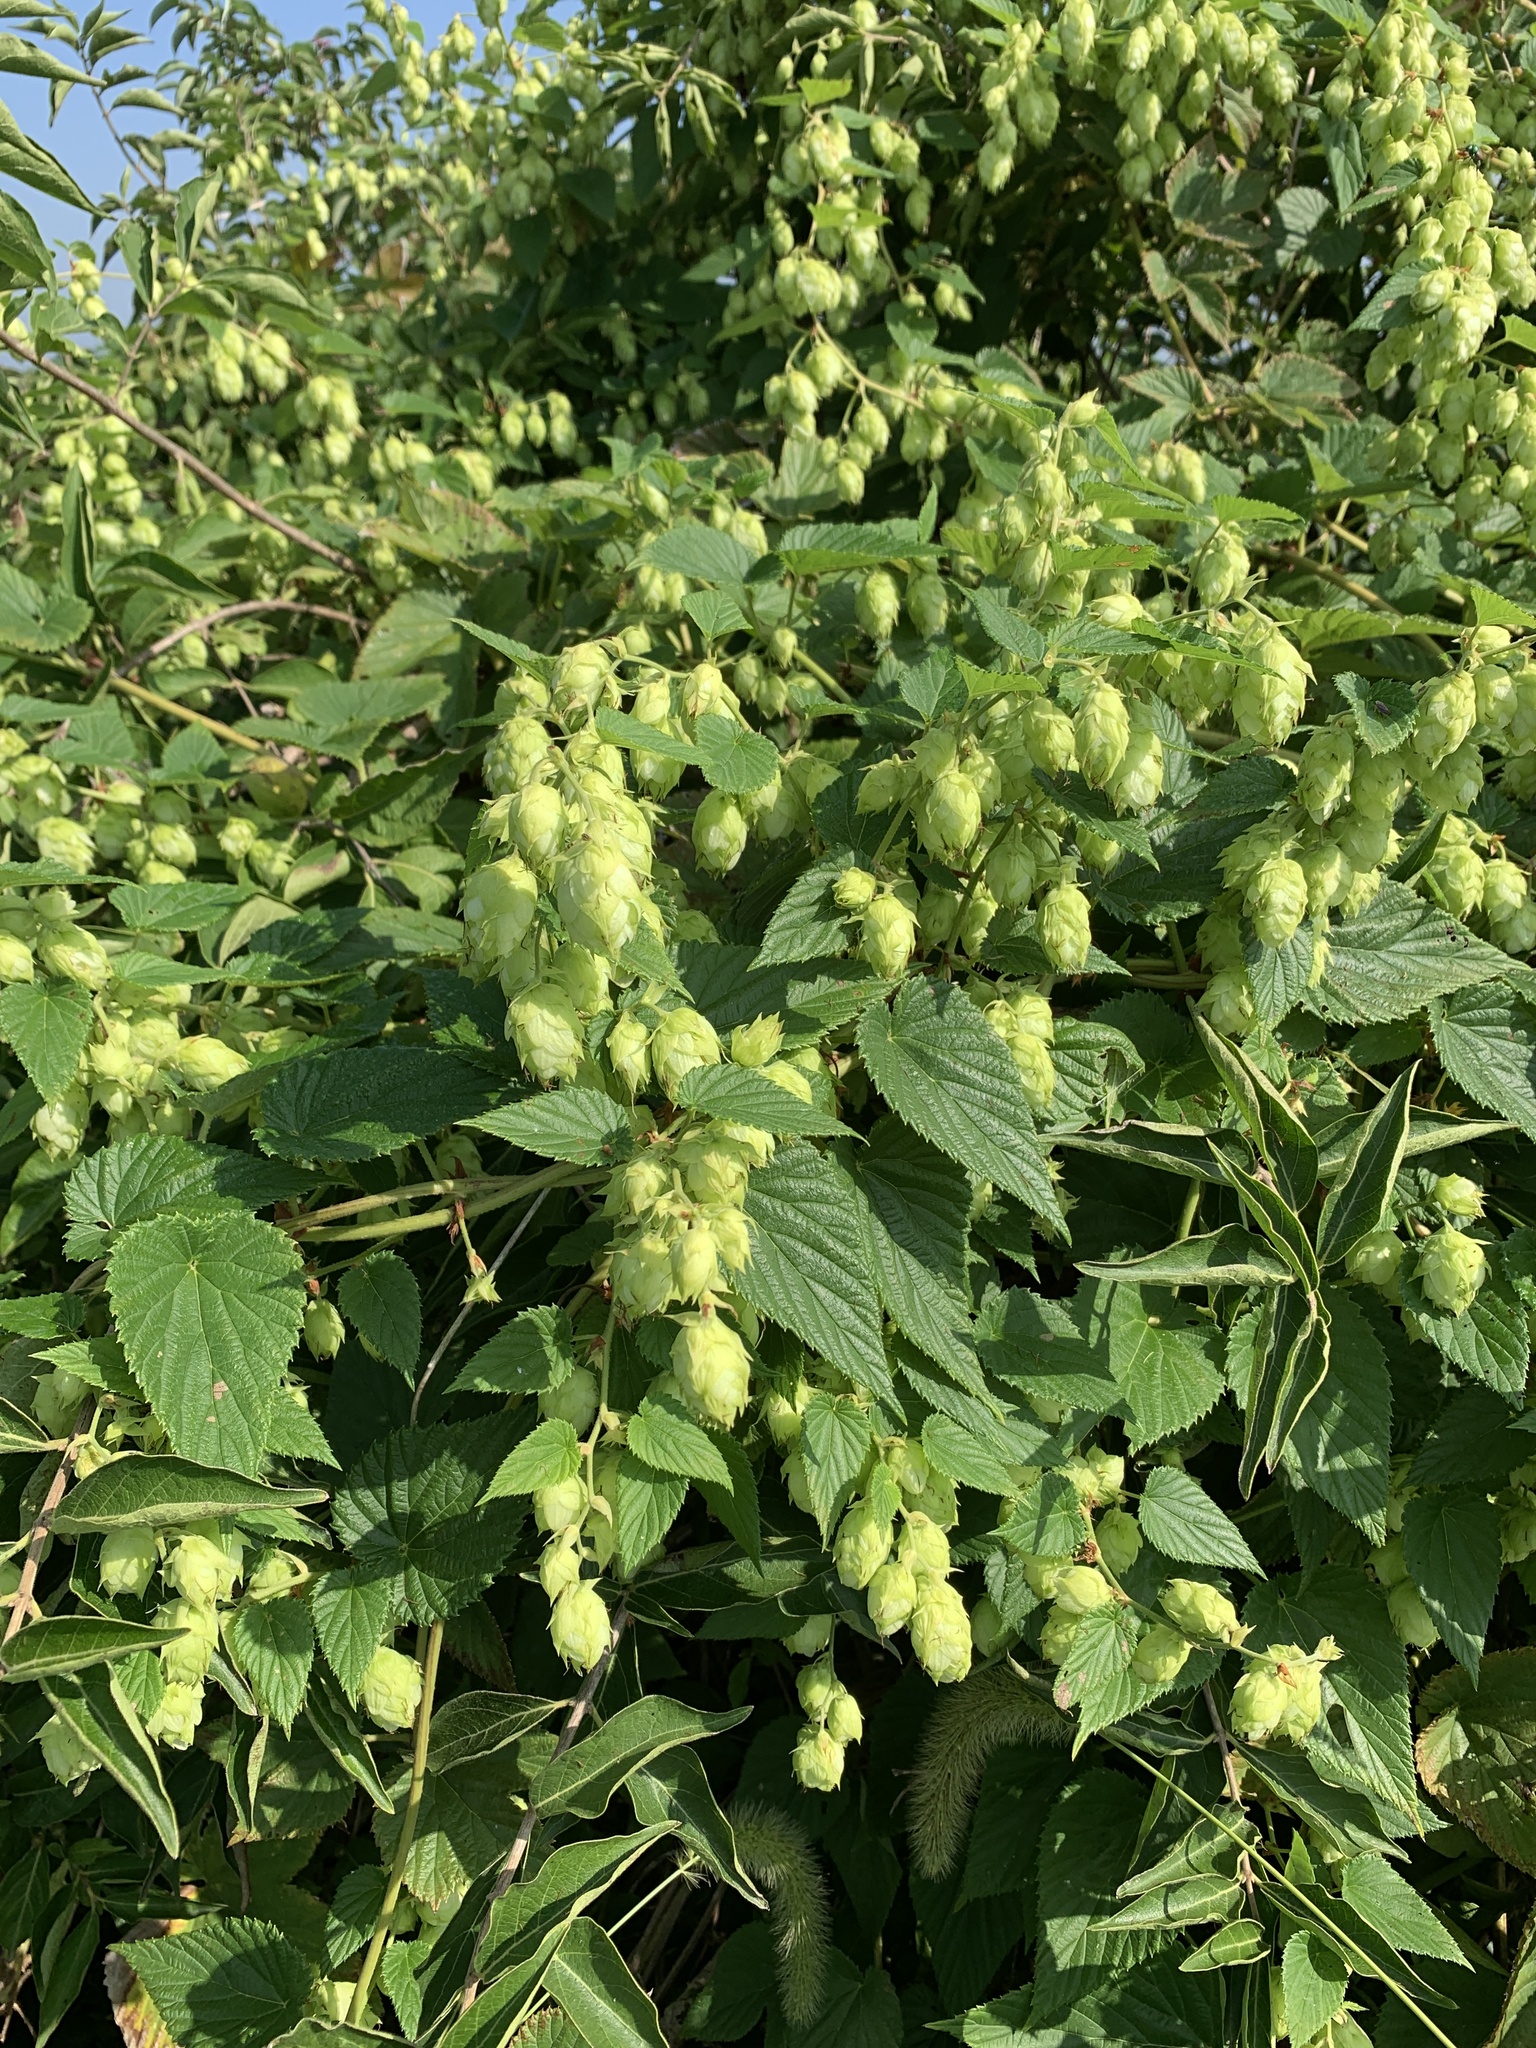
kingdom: Plantae
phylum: Tracheophyta
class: Magnoliopsida
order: Rosales
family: Cannabaceae
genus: Humulus
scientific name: Humulus lupulus
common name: Hop
